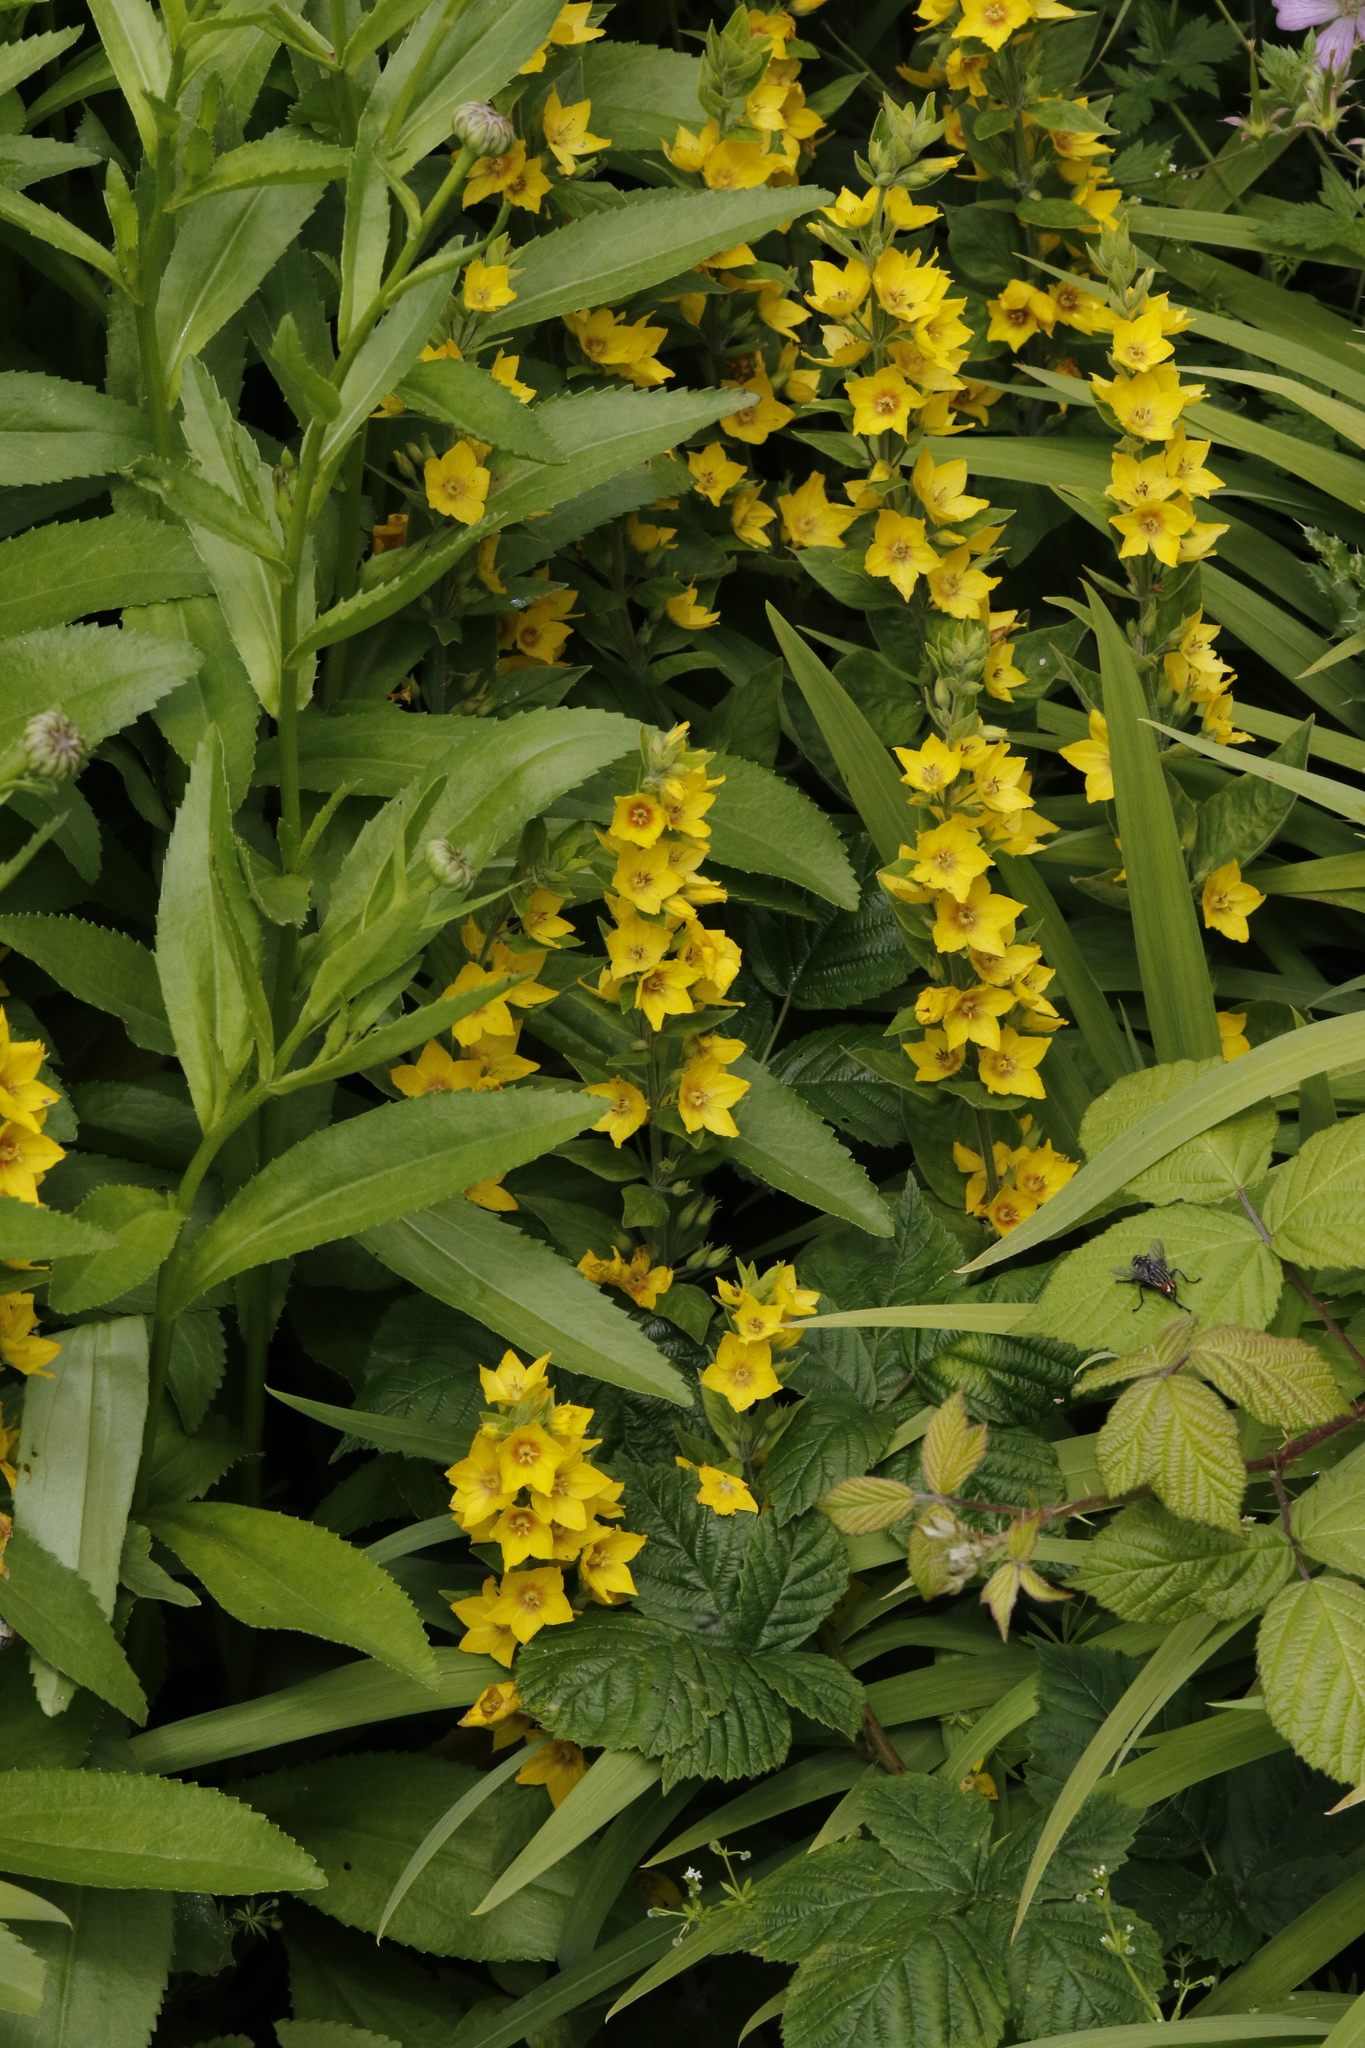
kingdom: Plantae
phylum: Tracheophyta
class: Magnoliopsida
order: Ericales
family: Primulaceae
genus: Lysimachia
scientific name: Lysimachia punctata
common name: Dotted loosestrife
